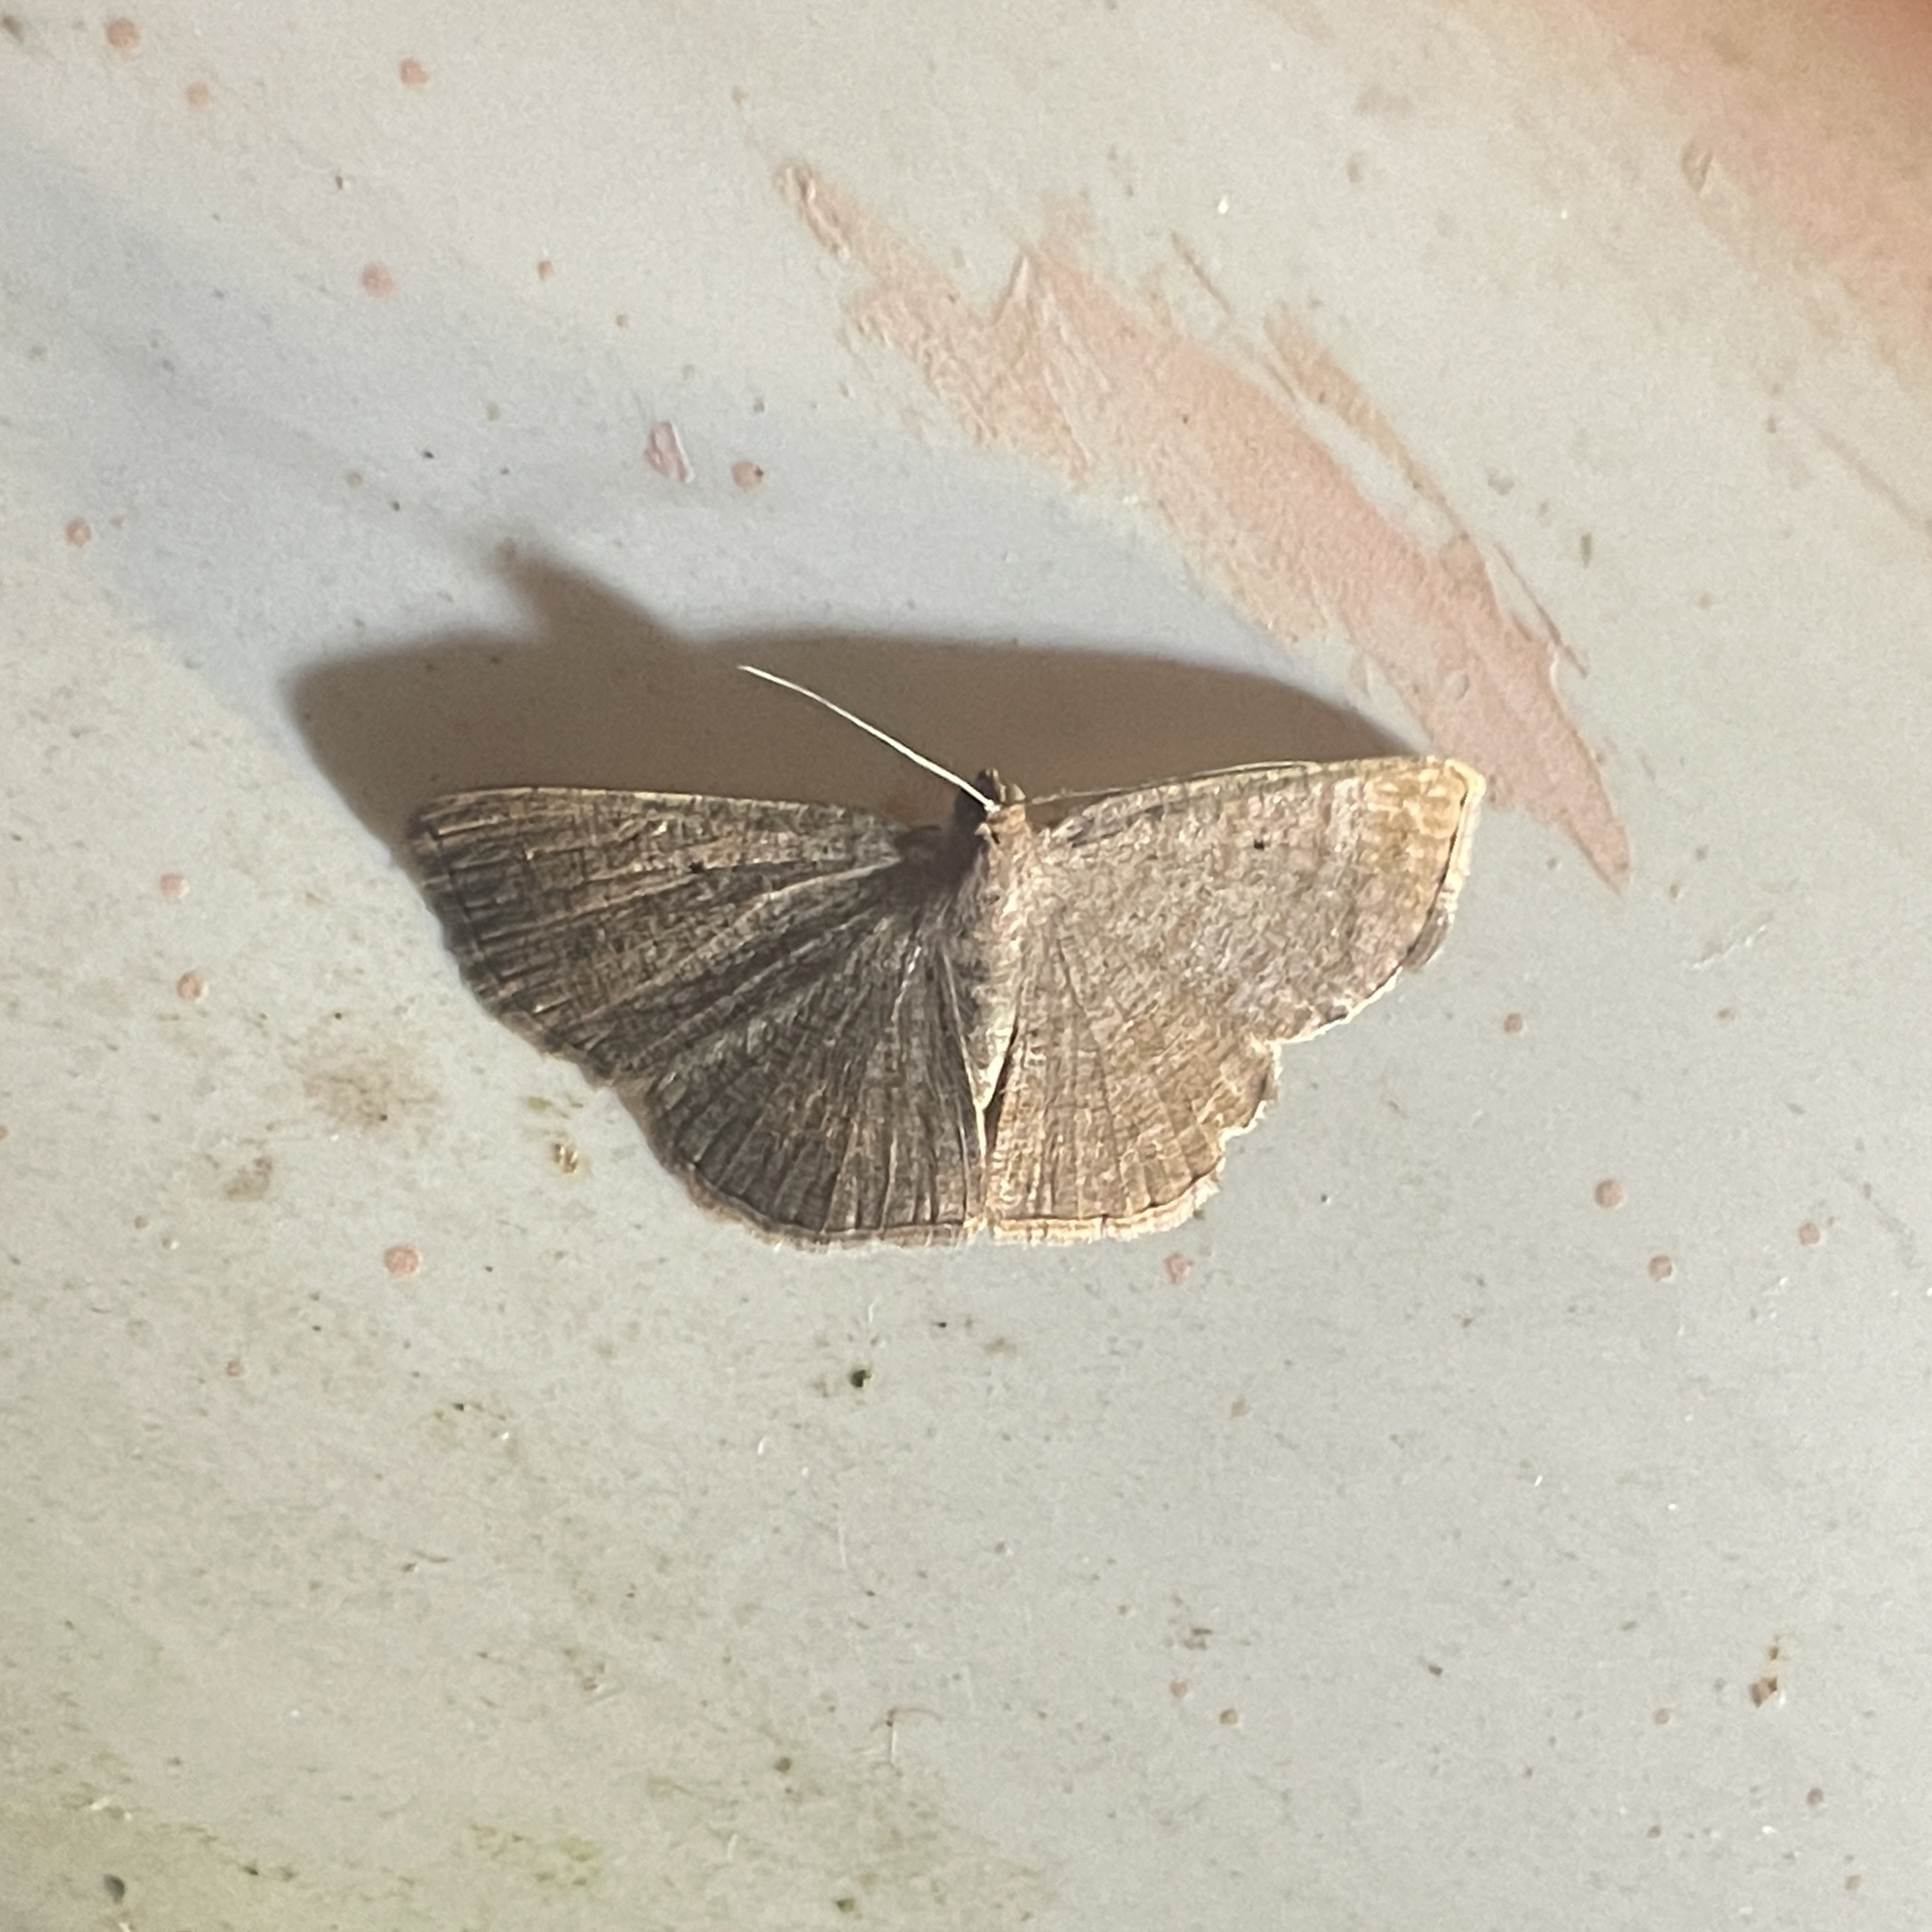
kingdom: Animalia
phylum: Arthropoda
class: Insecta
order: Lepidoptera
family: Geometridae
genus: Parilexia
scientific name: Parilexia nicetaria
